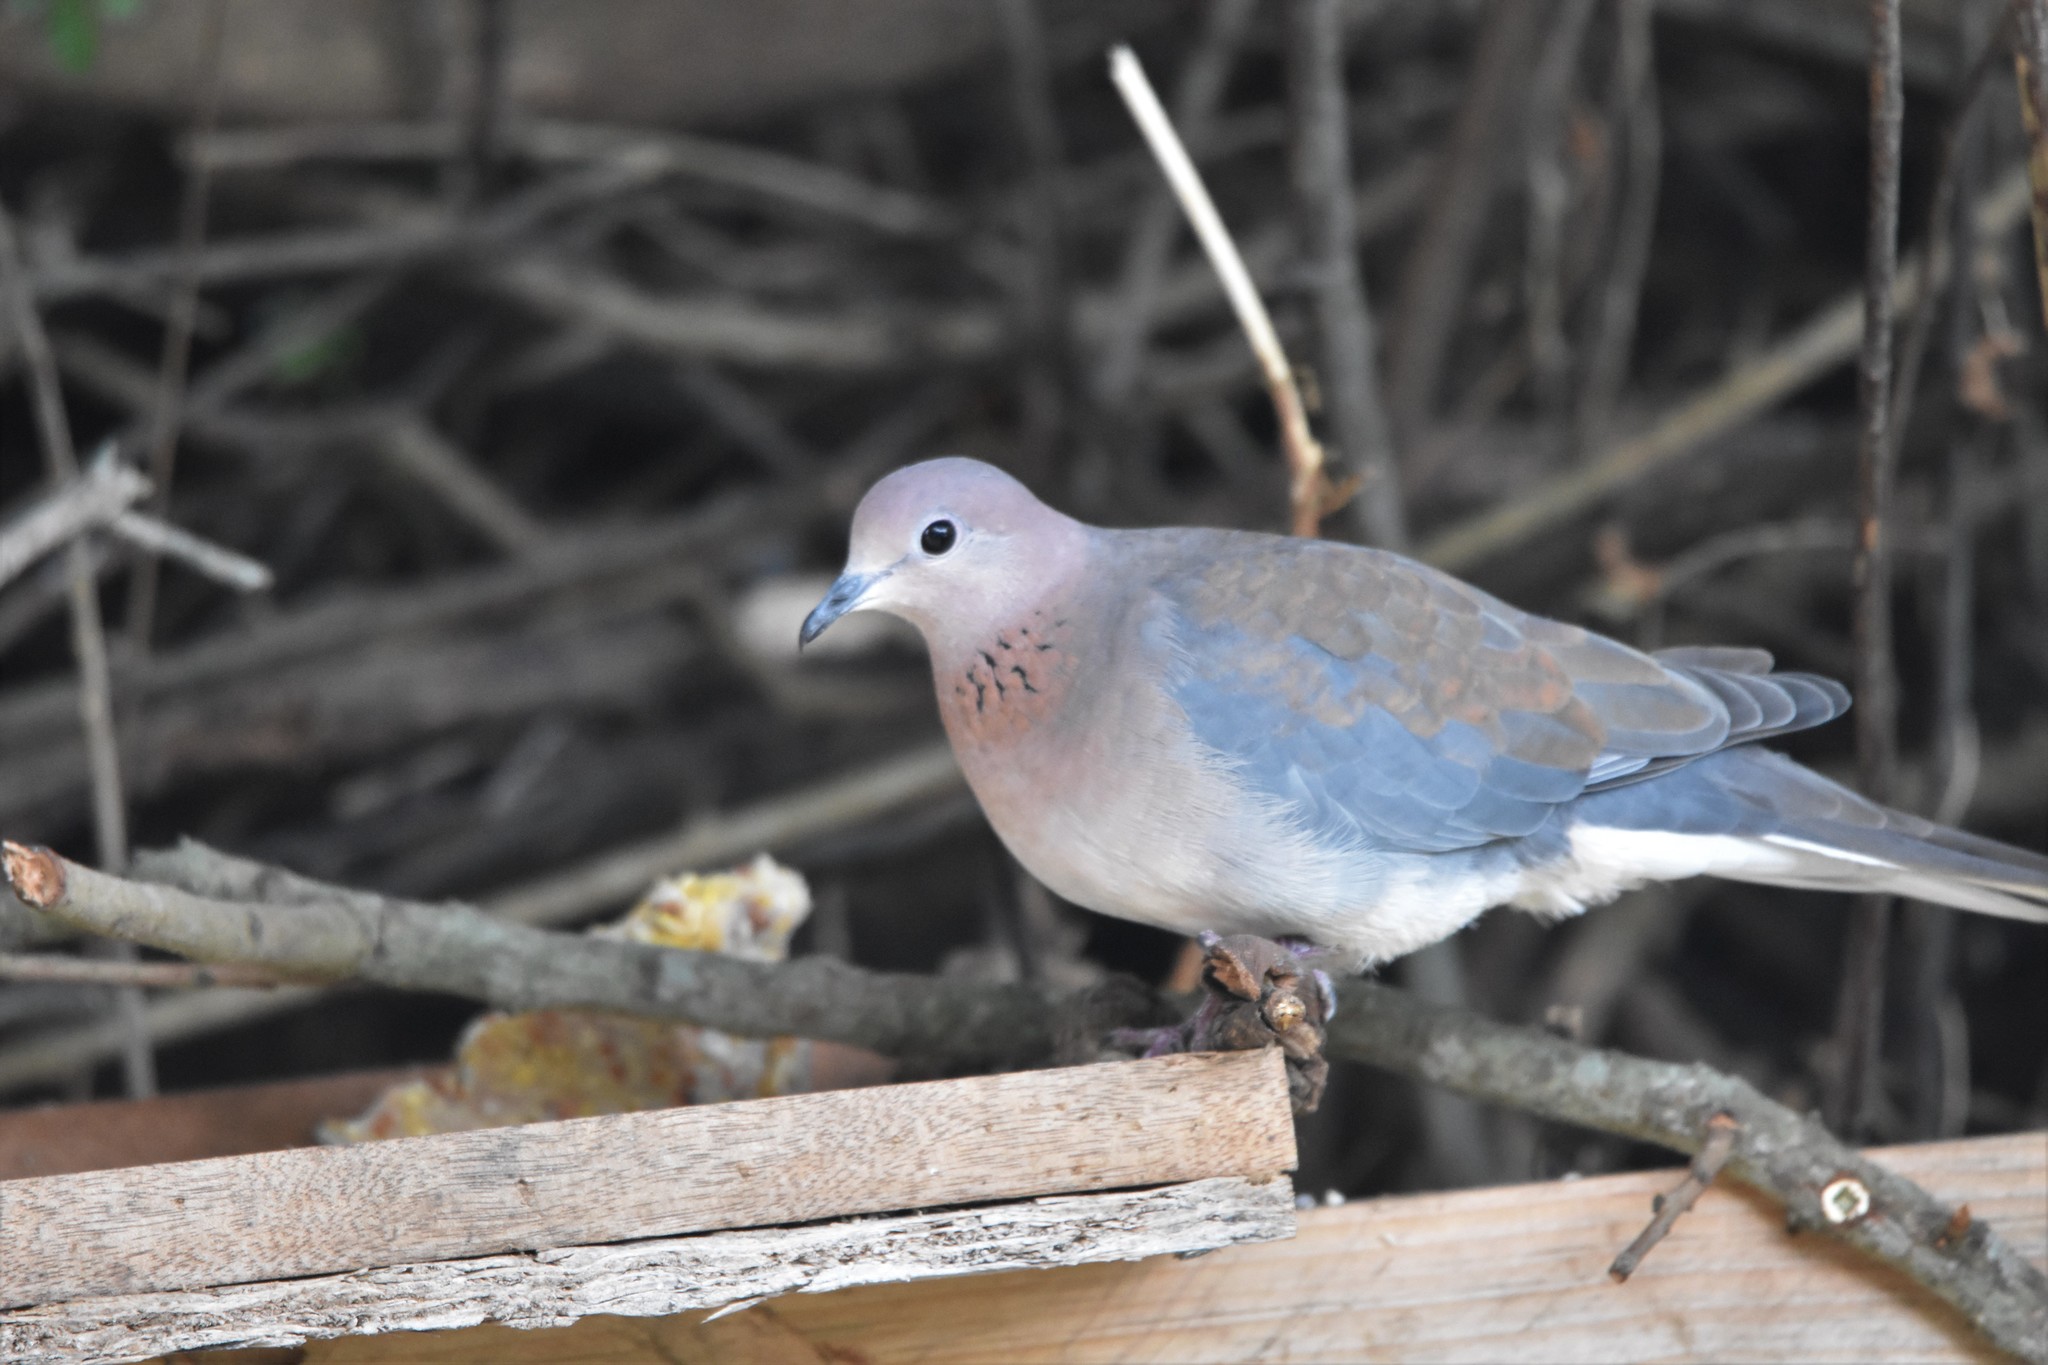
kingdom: Animalia
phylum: Chordata
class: Aves
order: Columbiformes
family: Columbidae
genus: Spilopelia
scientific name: Spilopelia senegalensis
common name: Laughing dove
